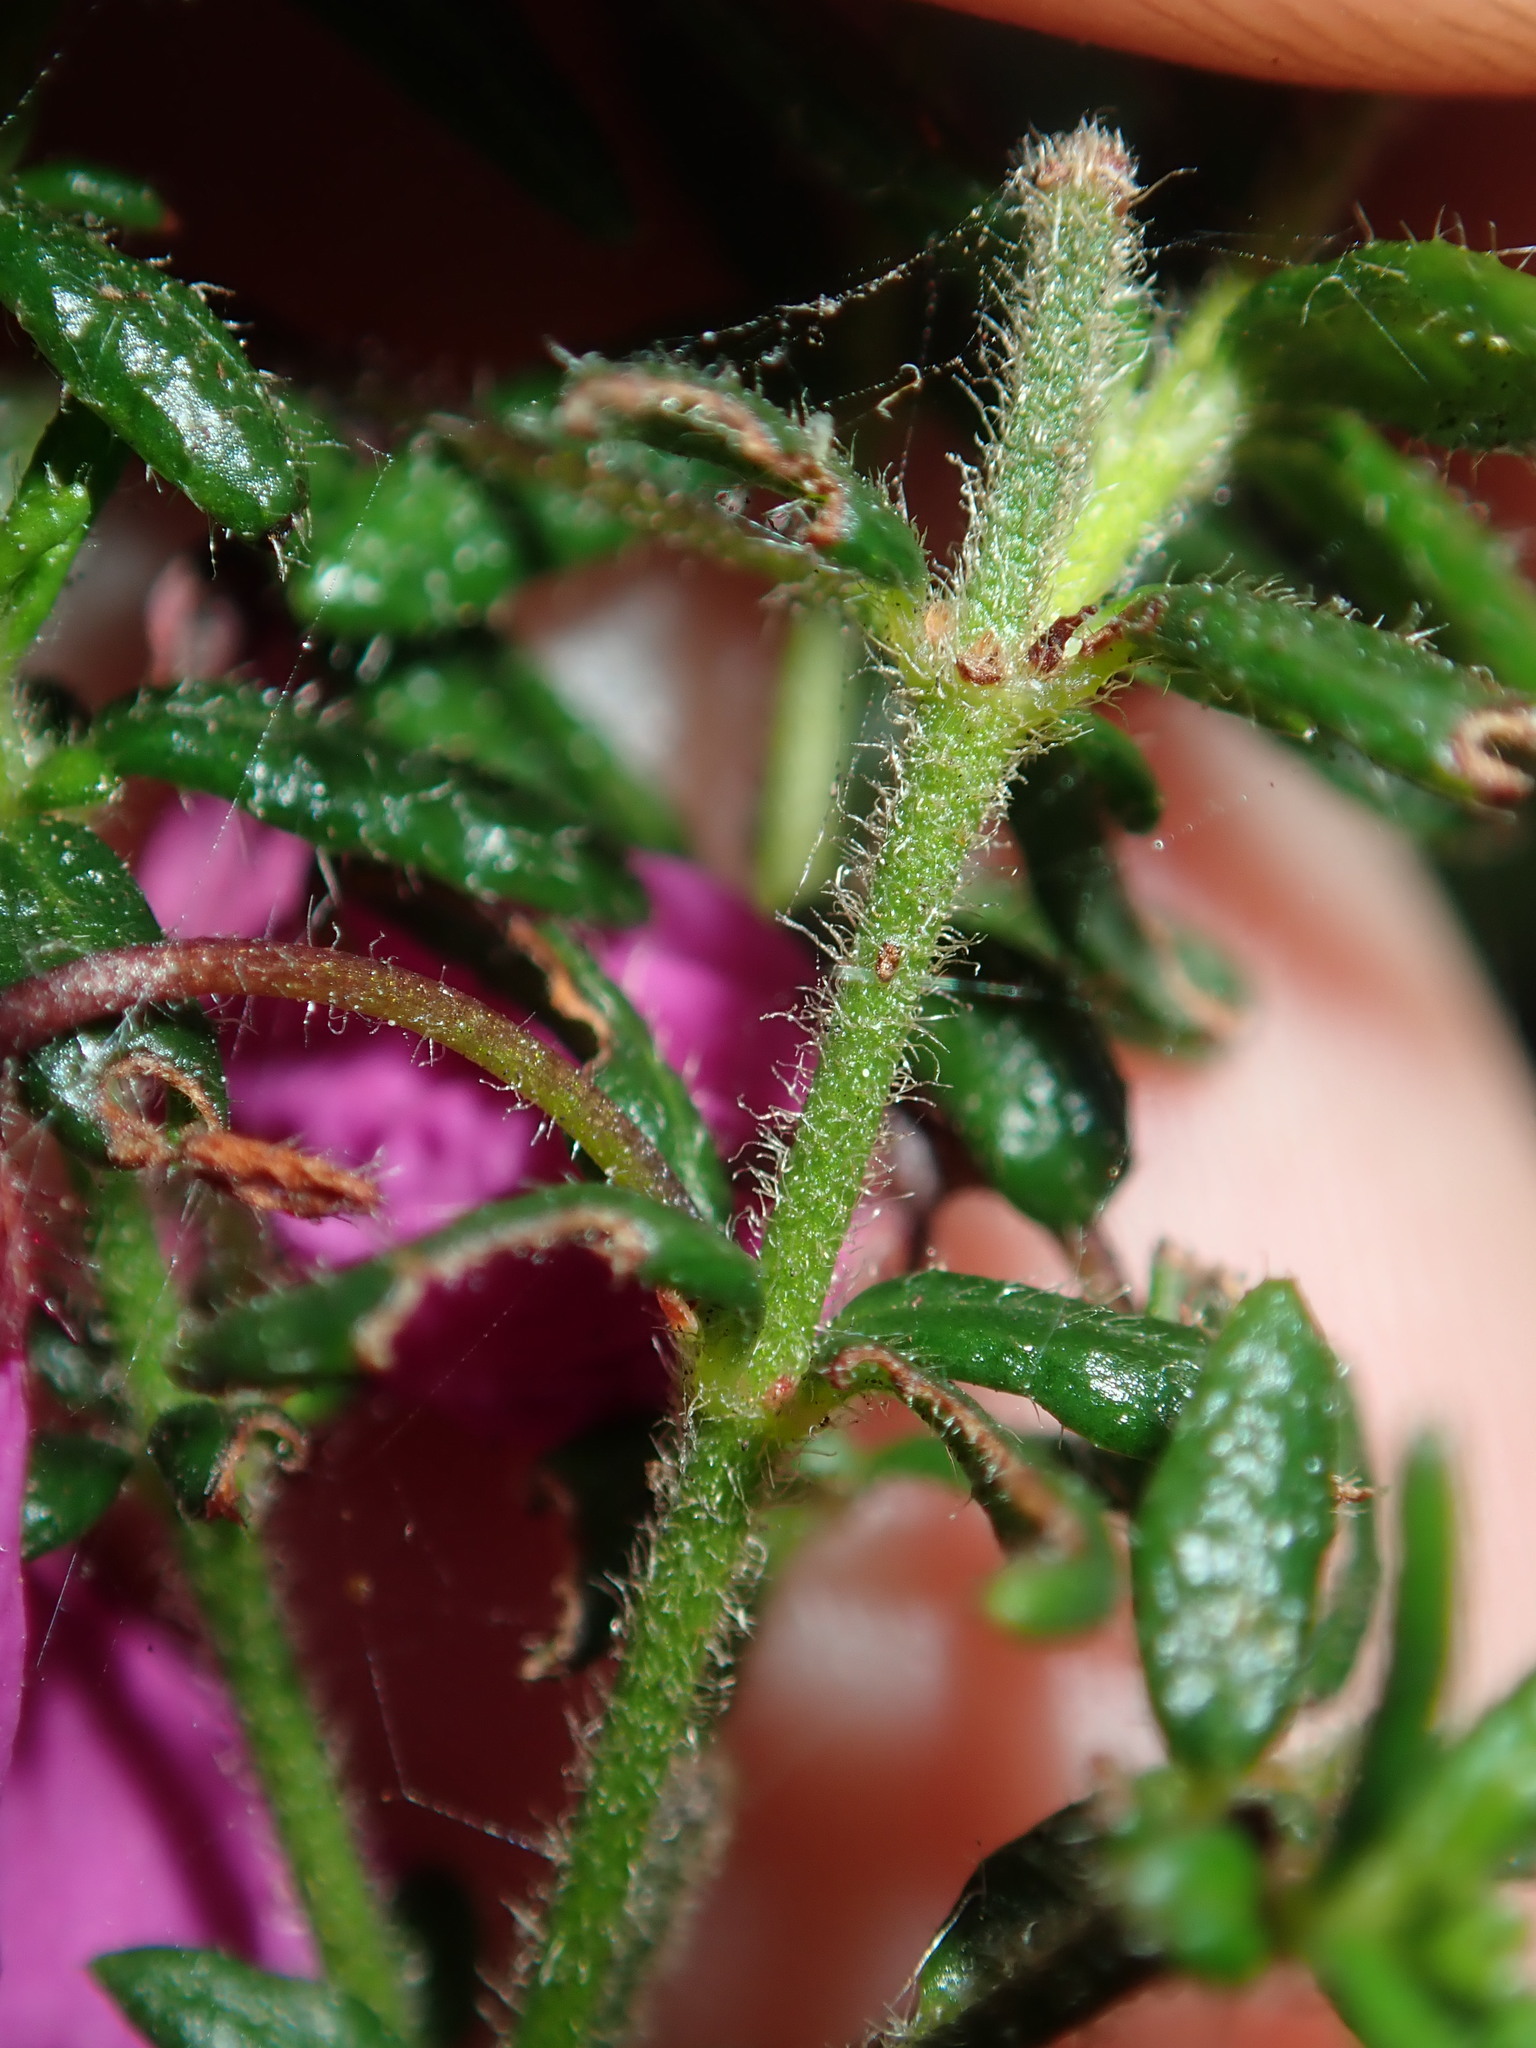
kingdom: Plantae
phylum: Tracheophyta
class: Magnoliopsida
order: Oxalidales
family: Elaeocarpaceae
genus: Tetratheca
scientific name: Tetratheca thymifolia
